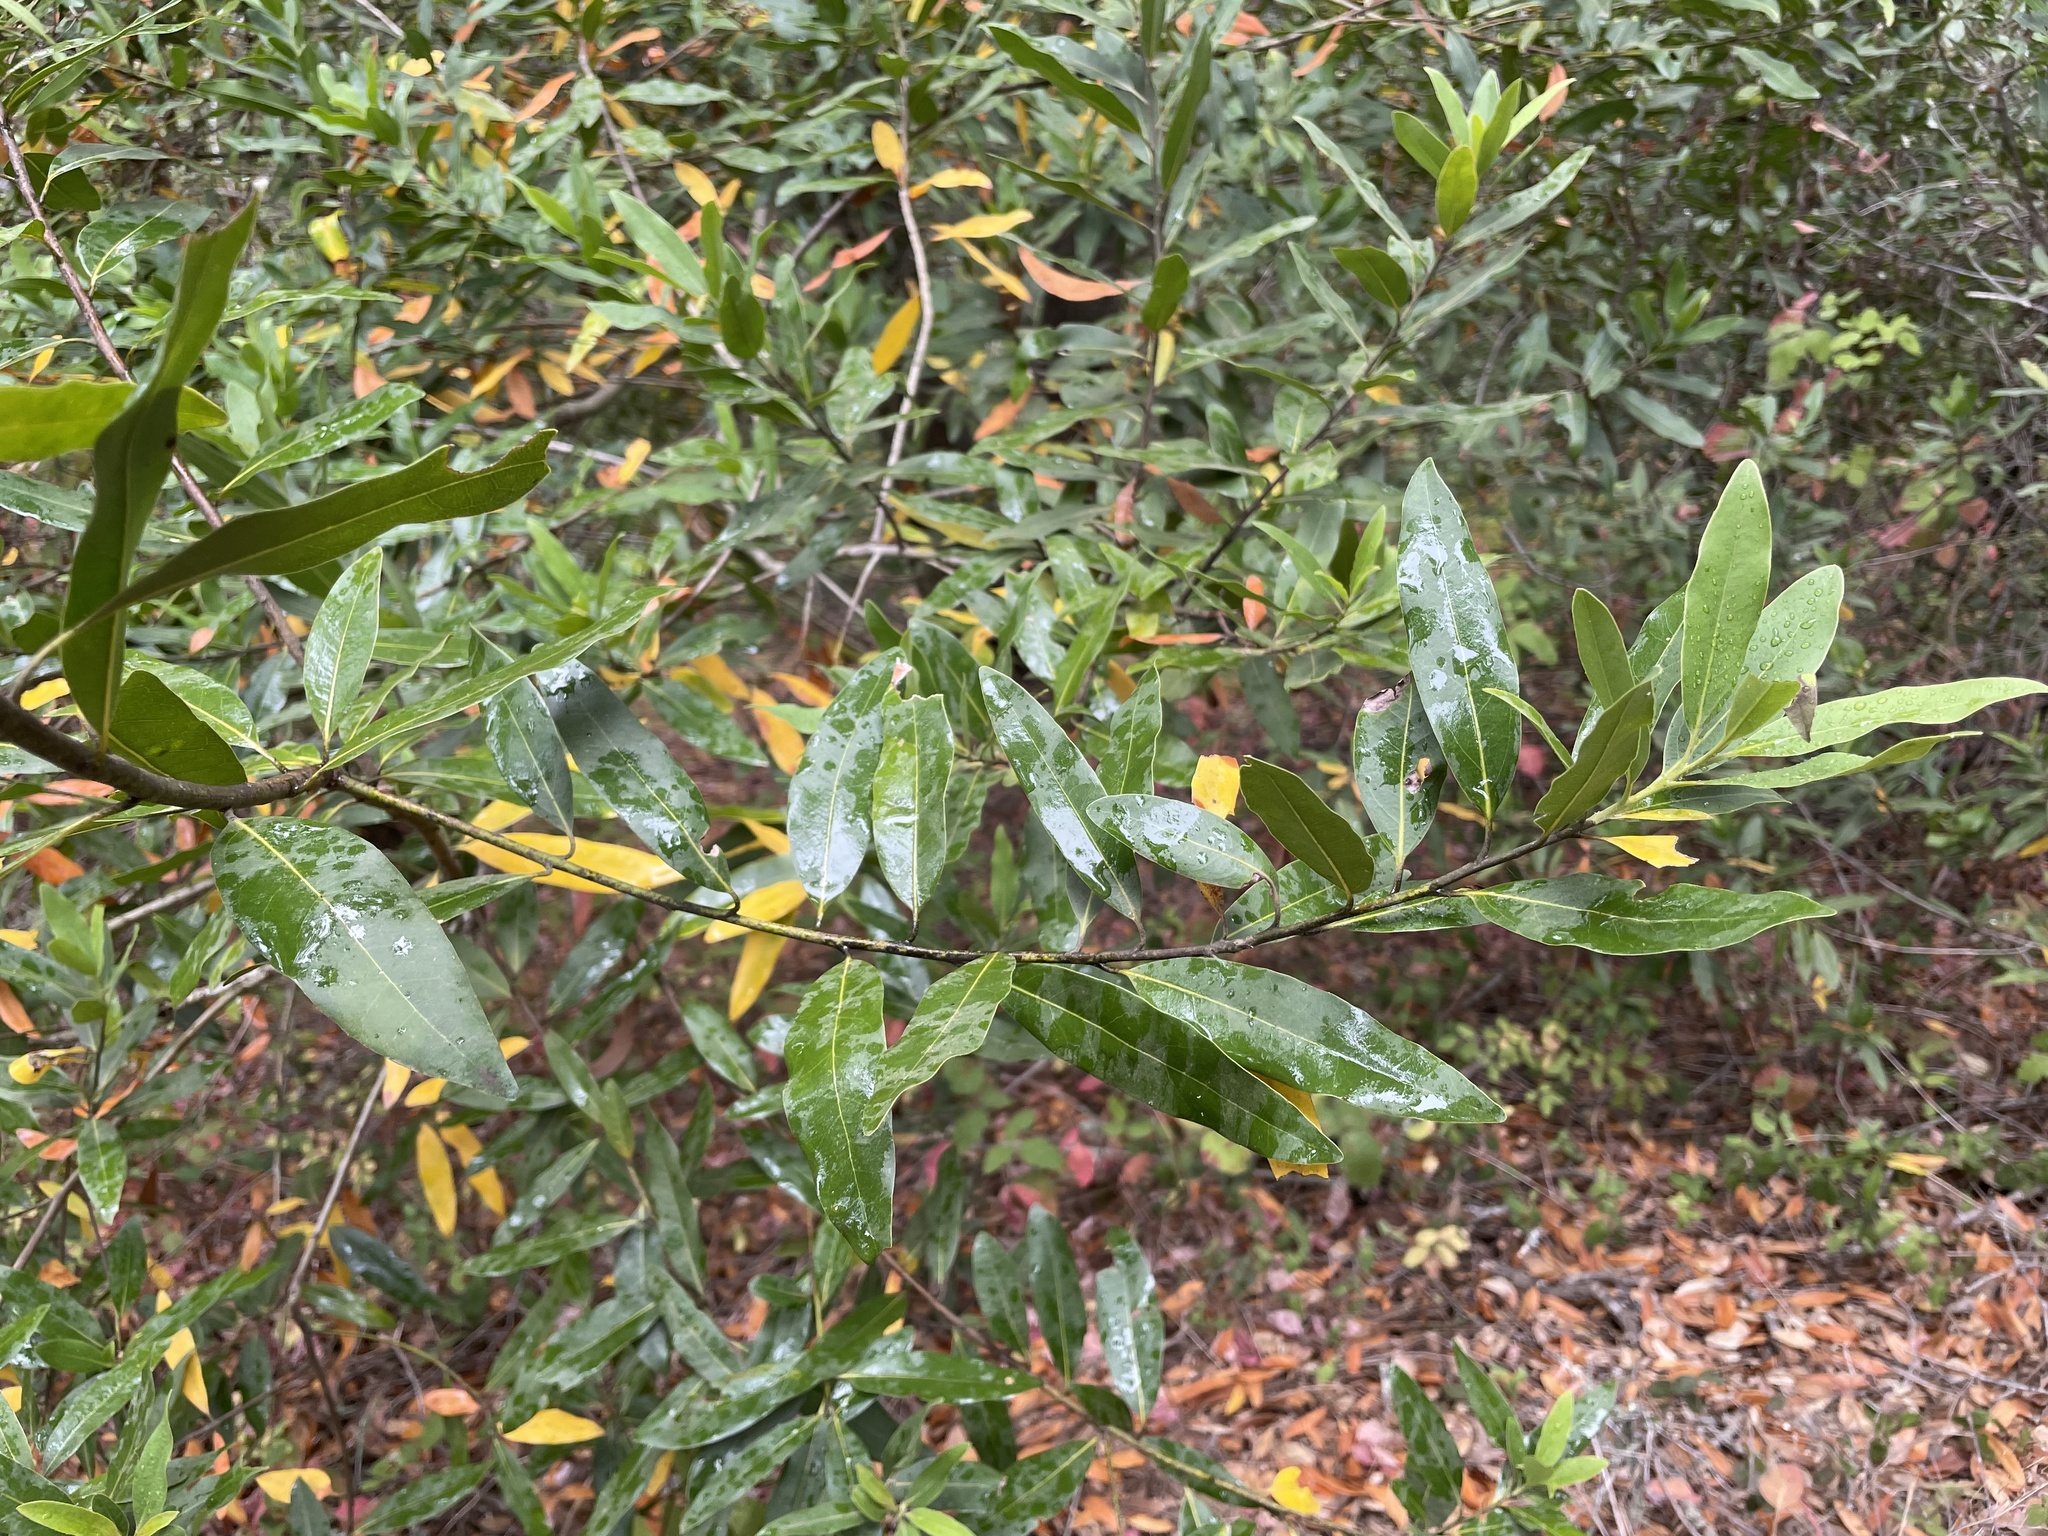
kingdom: Plantae
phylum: Tracheophyta
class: Magnoliopsida
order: Laurales
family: Lauraceae
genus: Umbellularia
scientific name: Umbellularia californica
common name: California bay
